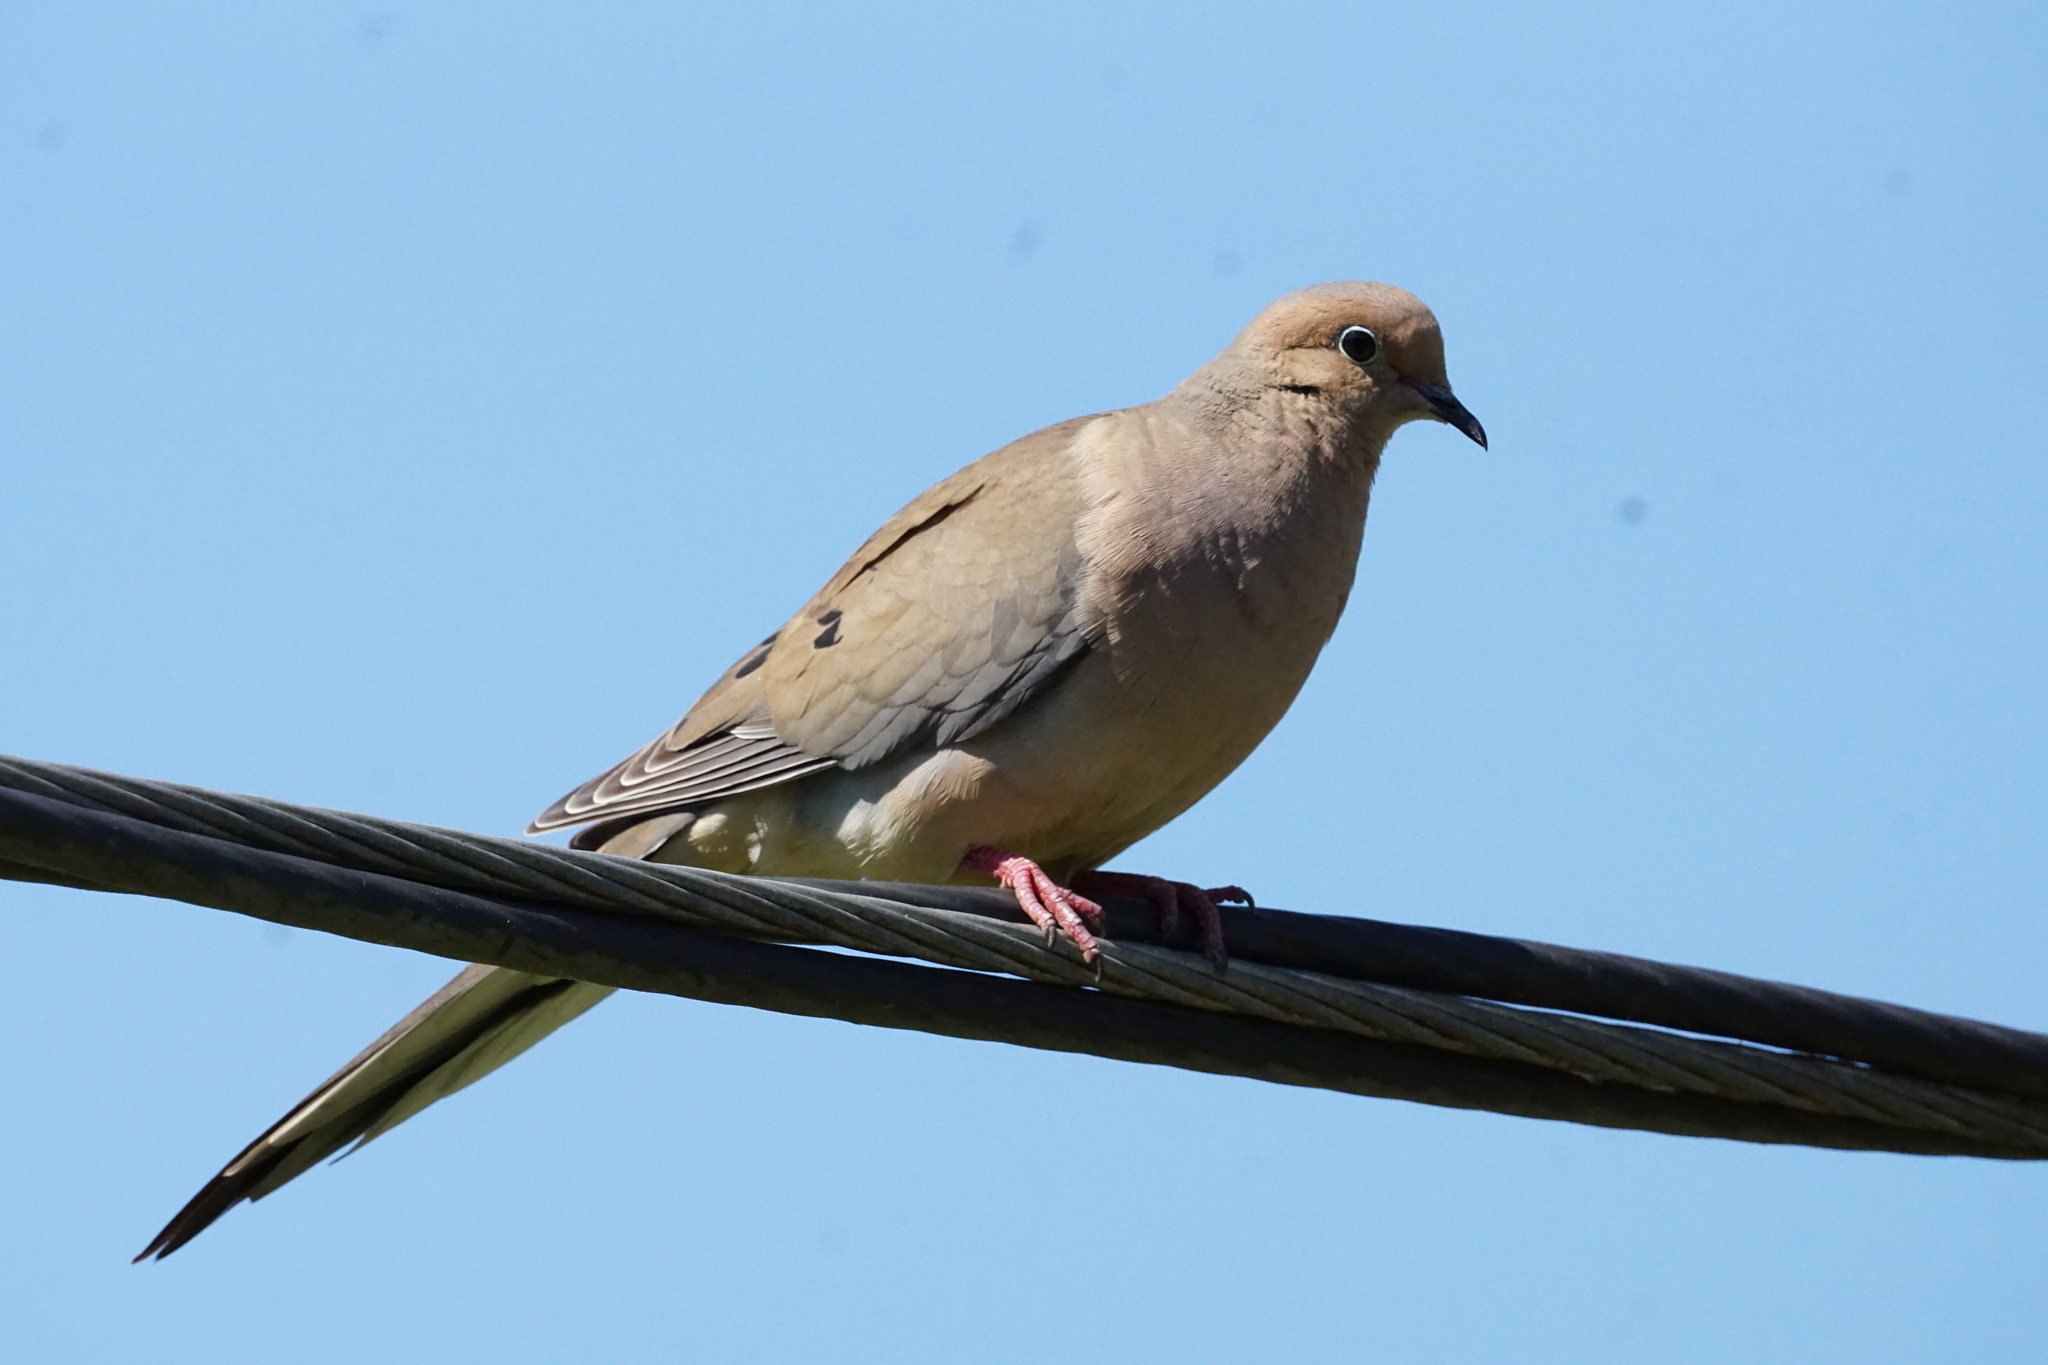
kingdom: Animalia
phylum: Chordata
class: Aves
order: Columbiformes
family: Columbidae
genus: Zenaida
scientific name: Zenaida macroura
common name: Mourning dove
